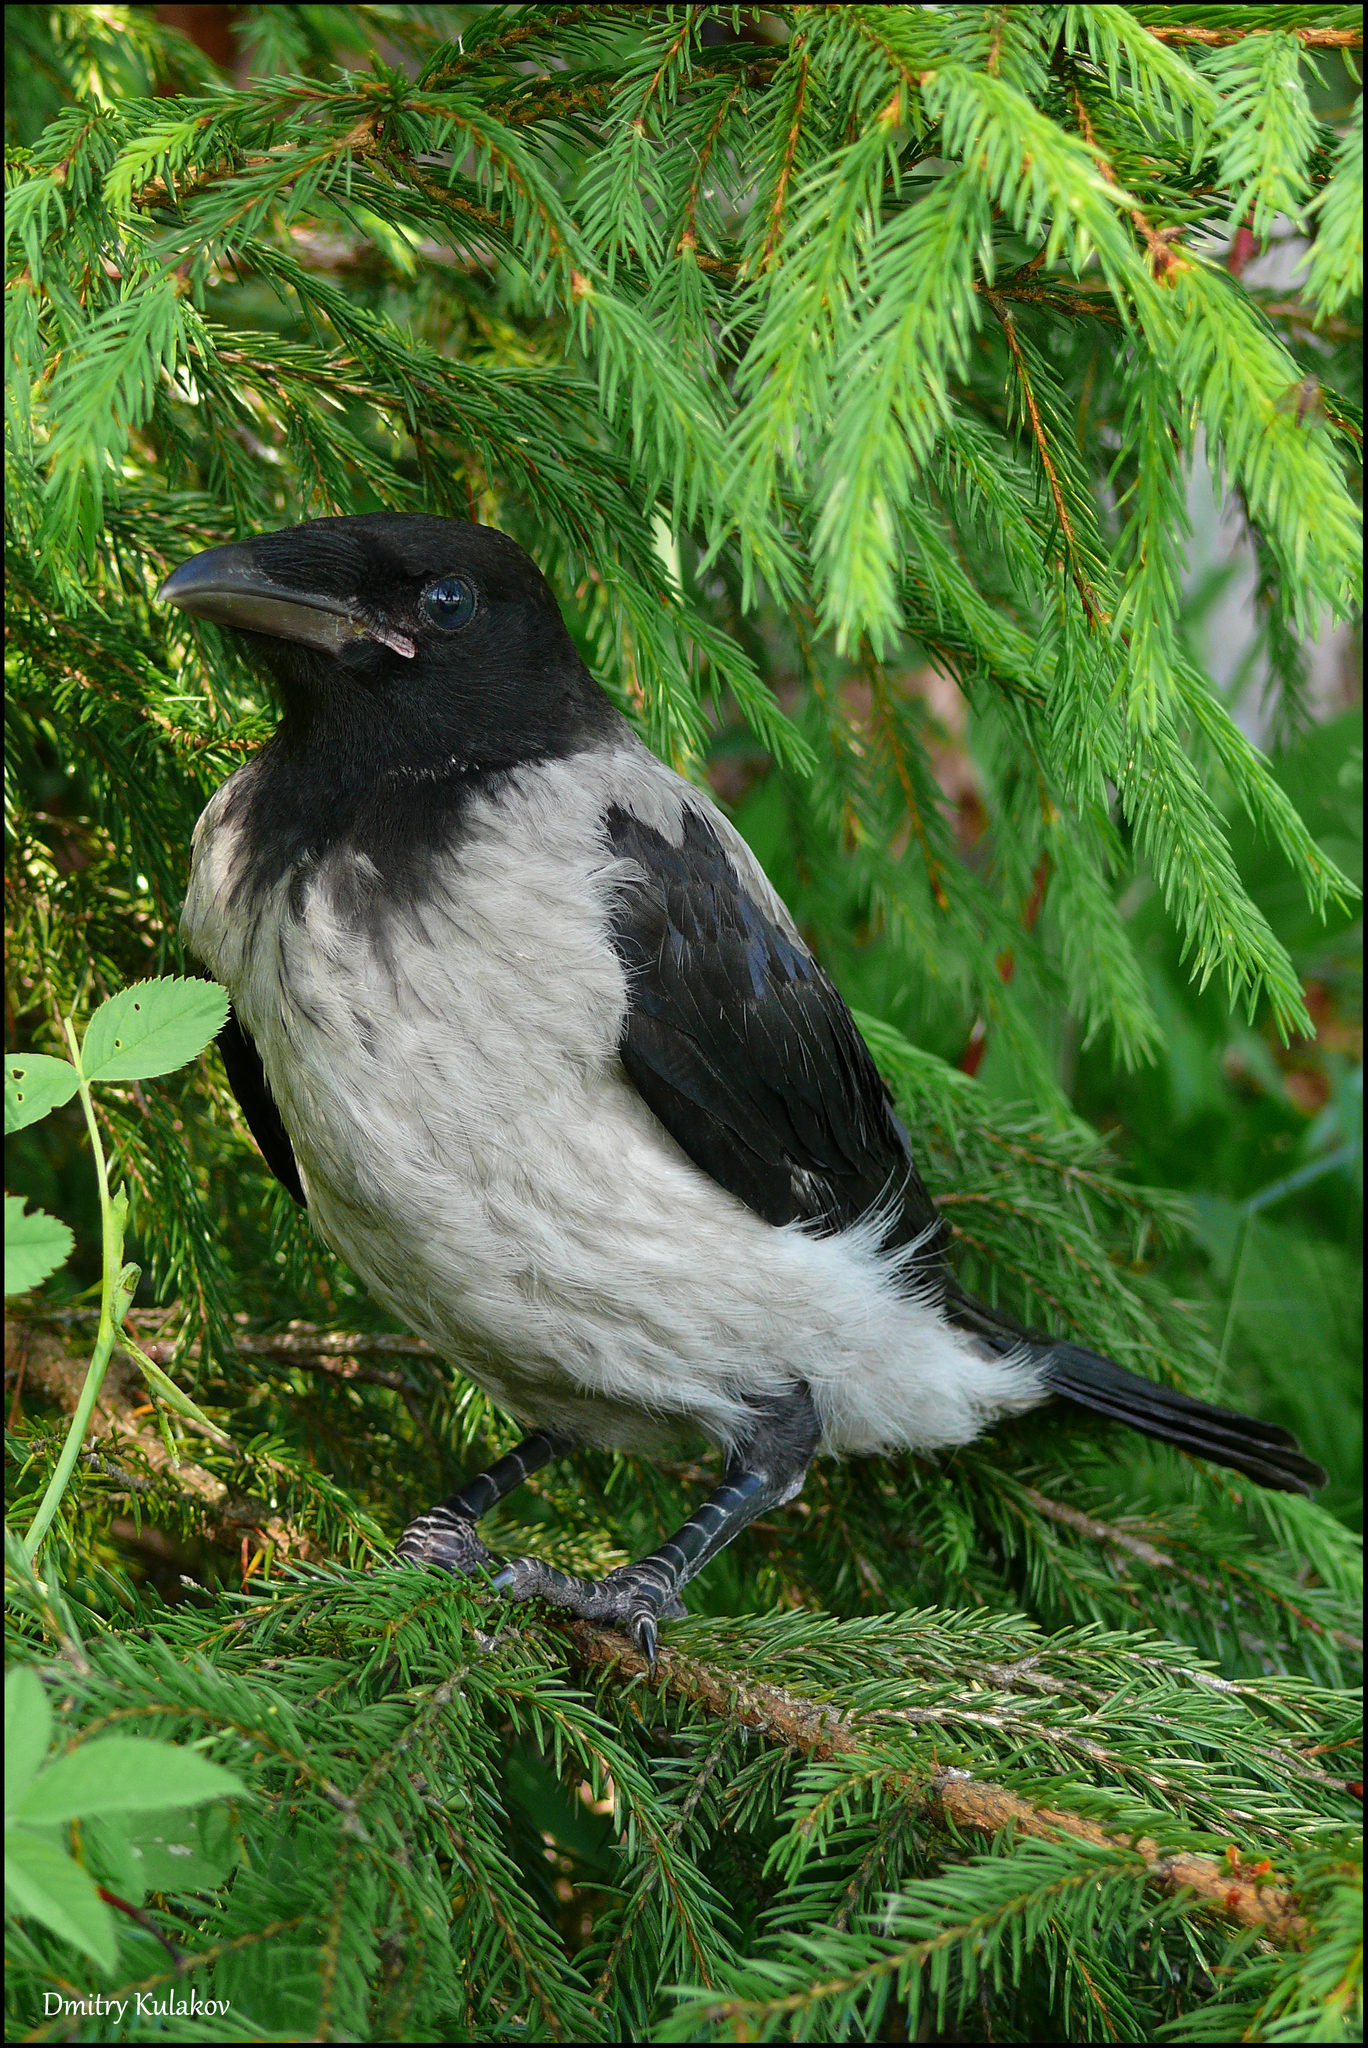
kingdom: Animalia
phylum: Chordata
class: Aves
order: Passeriformes
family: Corvidae
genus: Corvus
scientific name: Corvus cornix
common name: Hooded crow
